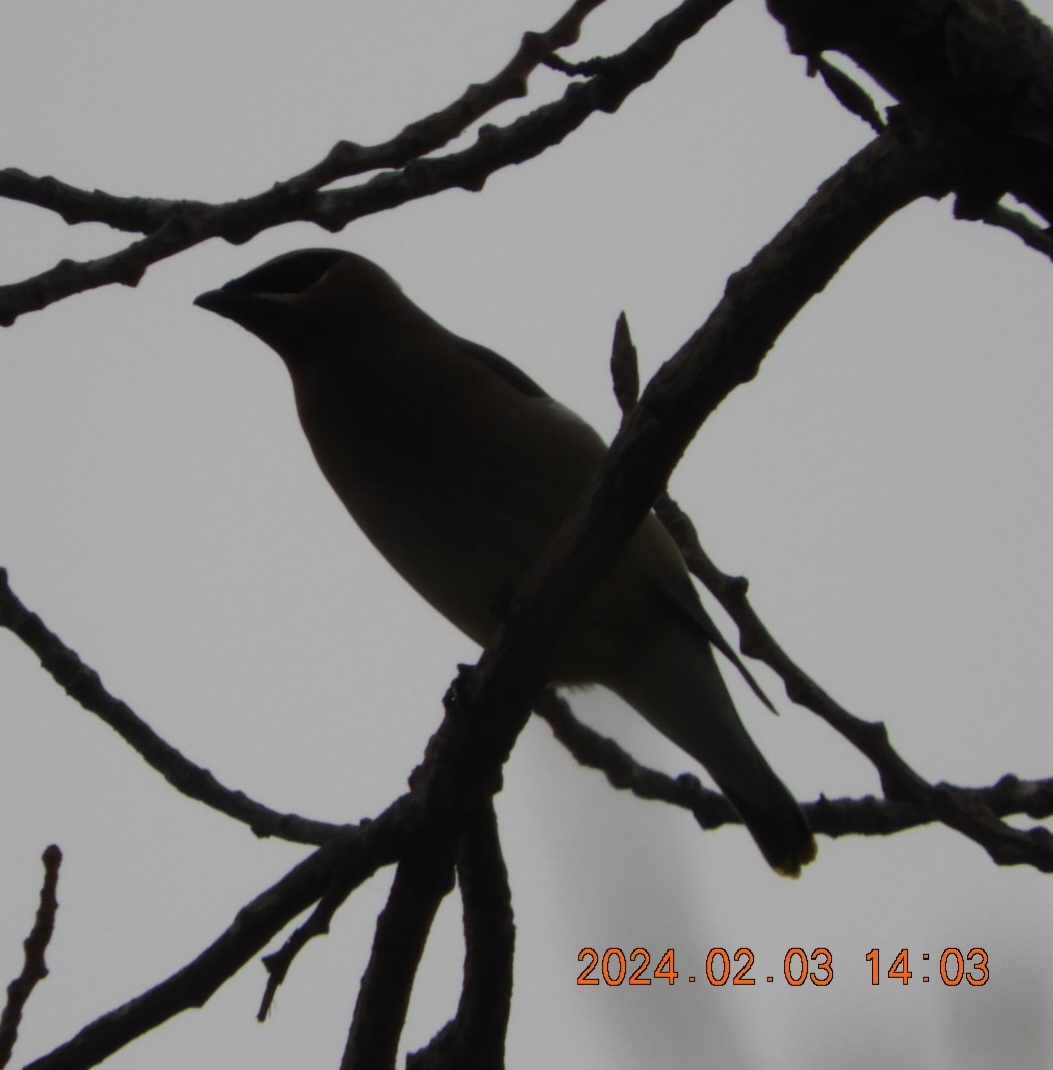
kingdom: Animalia
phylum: Chordata
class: Aves
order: Passeriformes
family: Bombycillidae
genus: Bombycilla
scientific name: Bombycilla cedrorum
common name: Cedar waxwing
